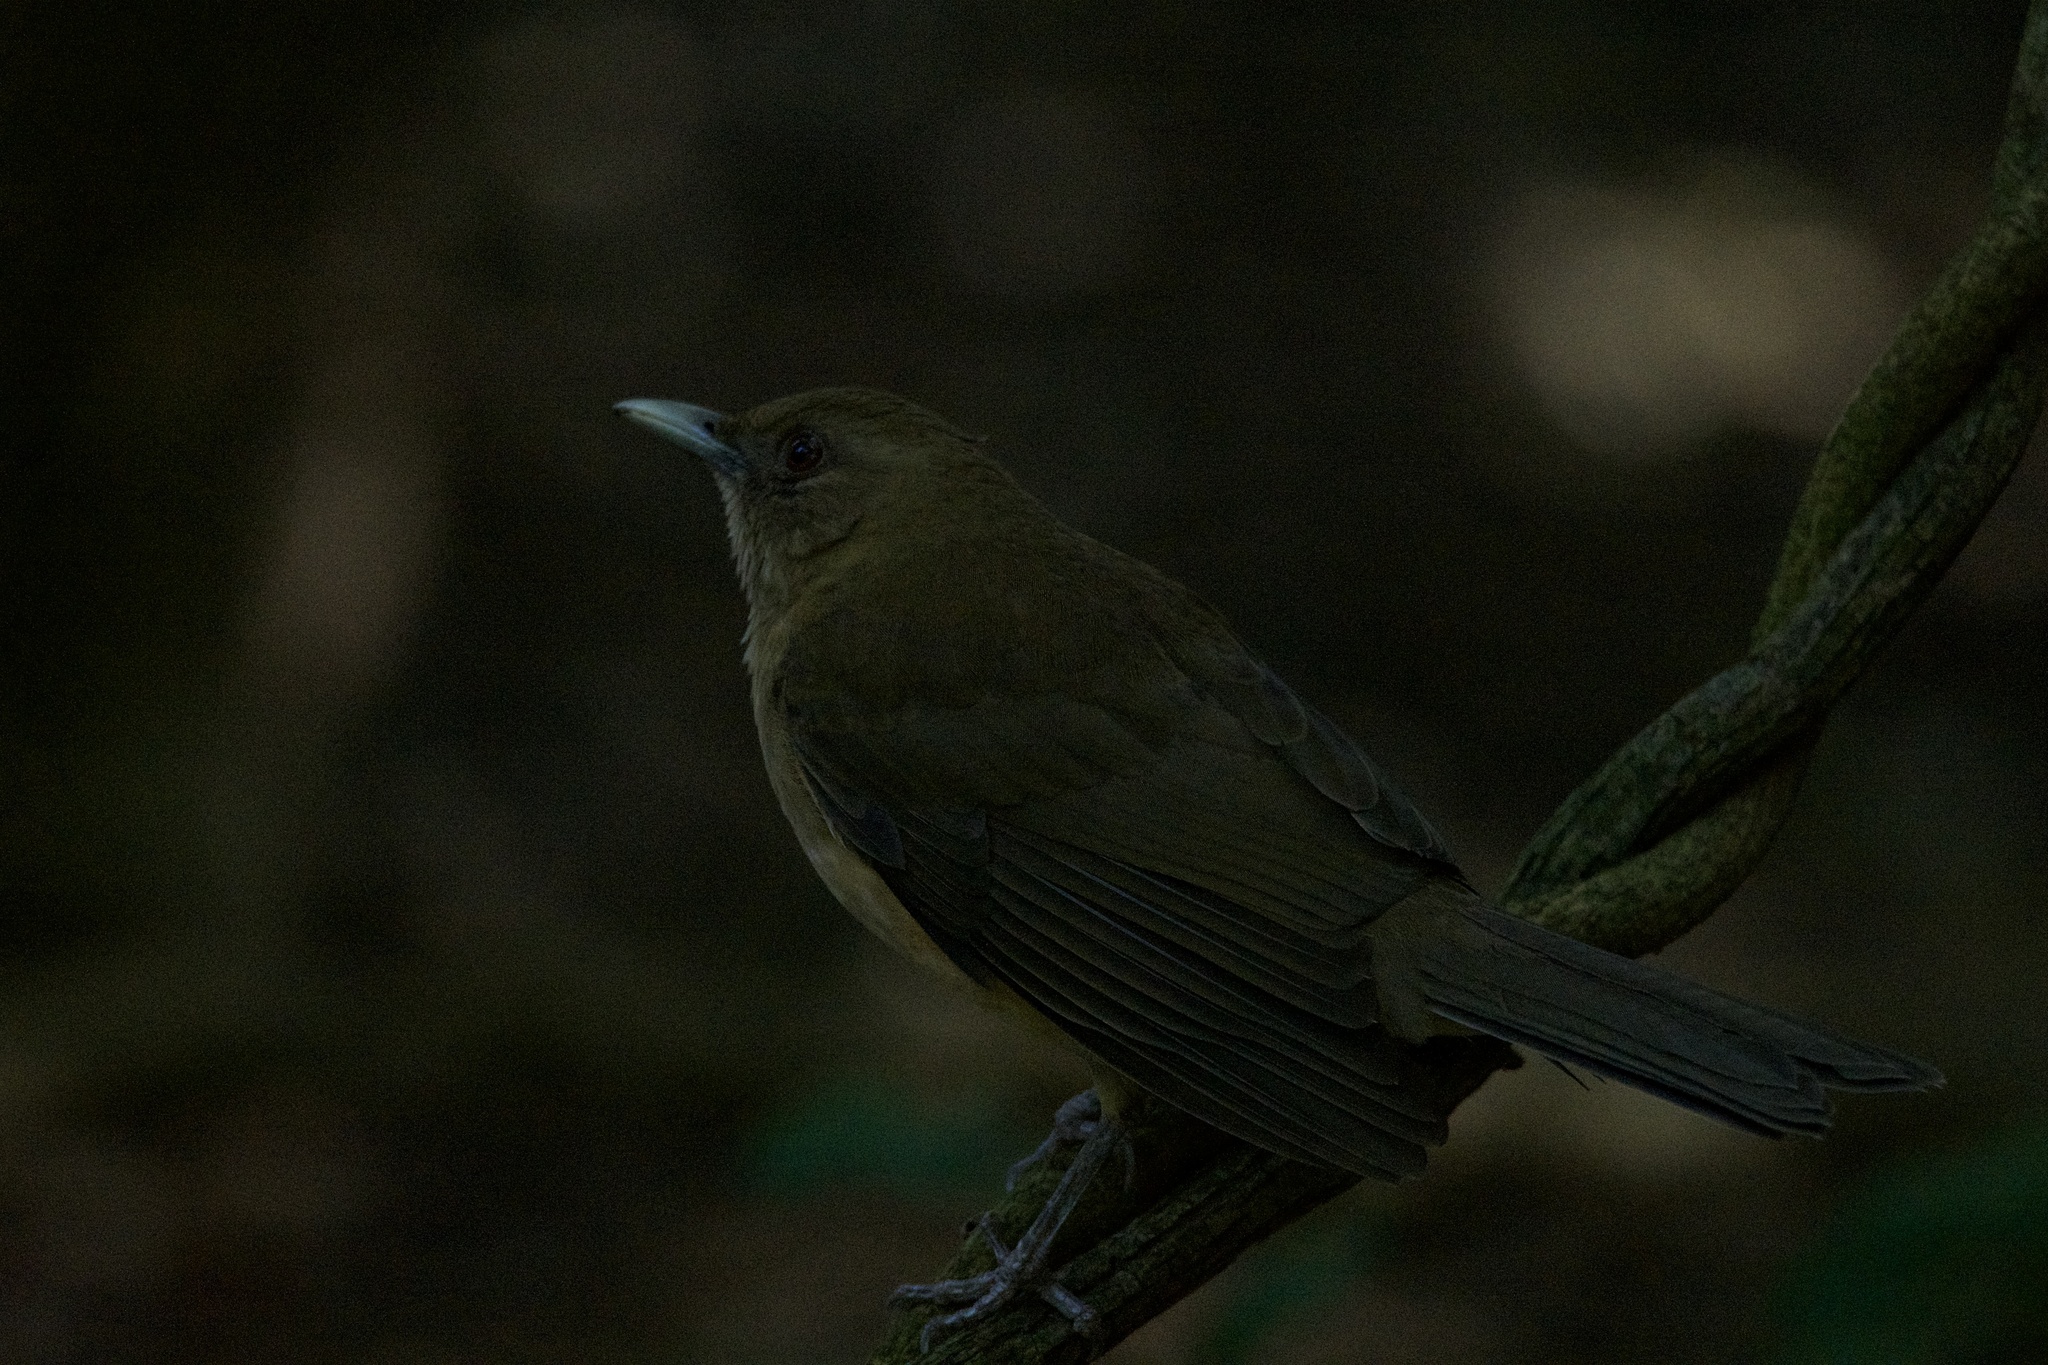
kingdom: Animalia
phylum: Chordata
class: Aves
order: Passeriformes
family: Turdidae
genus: Turdus
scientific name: Turdus grayi
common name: Clay-colored thrush
